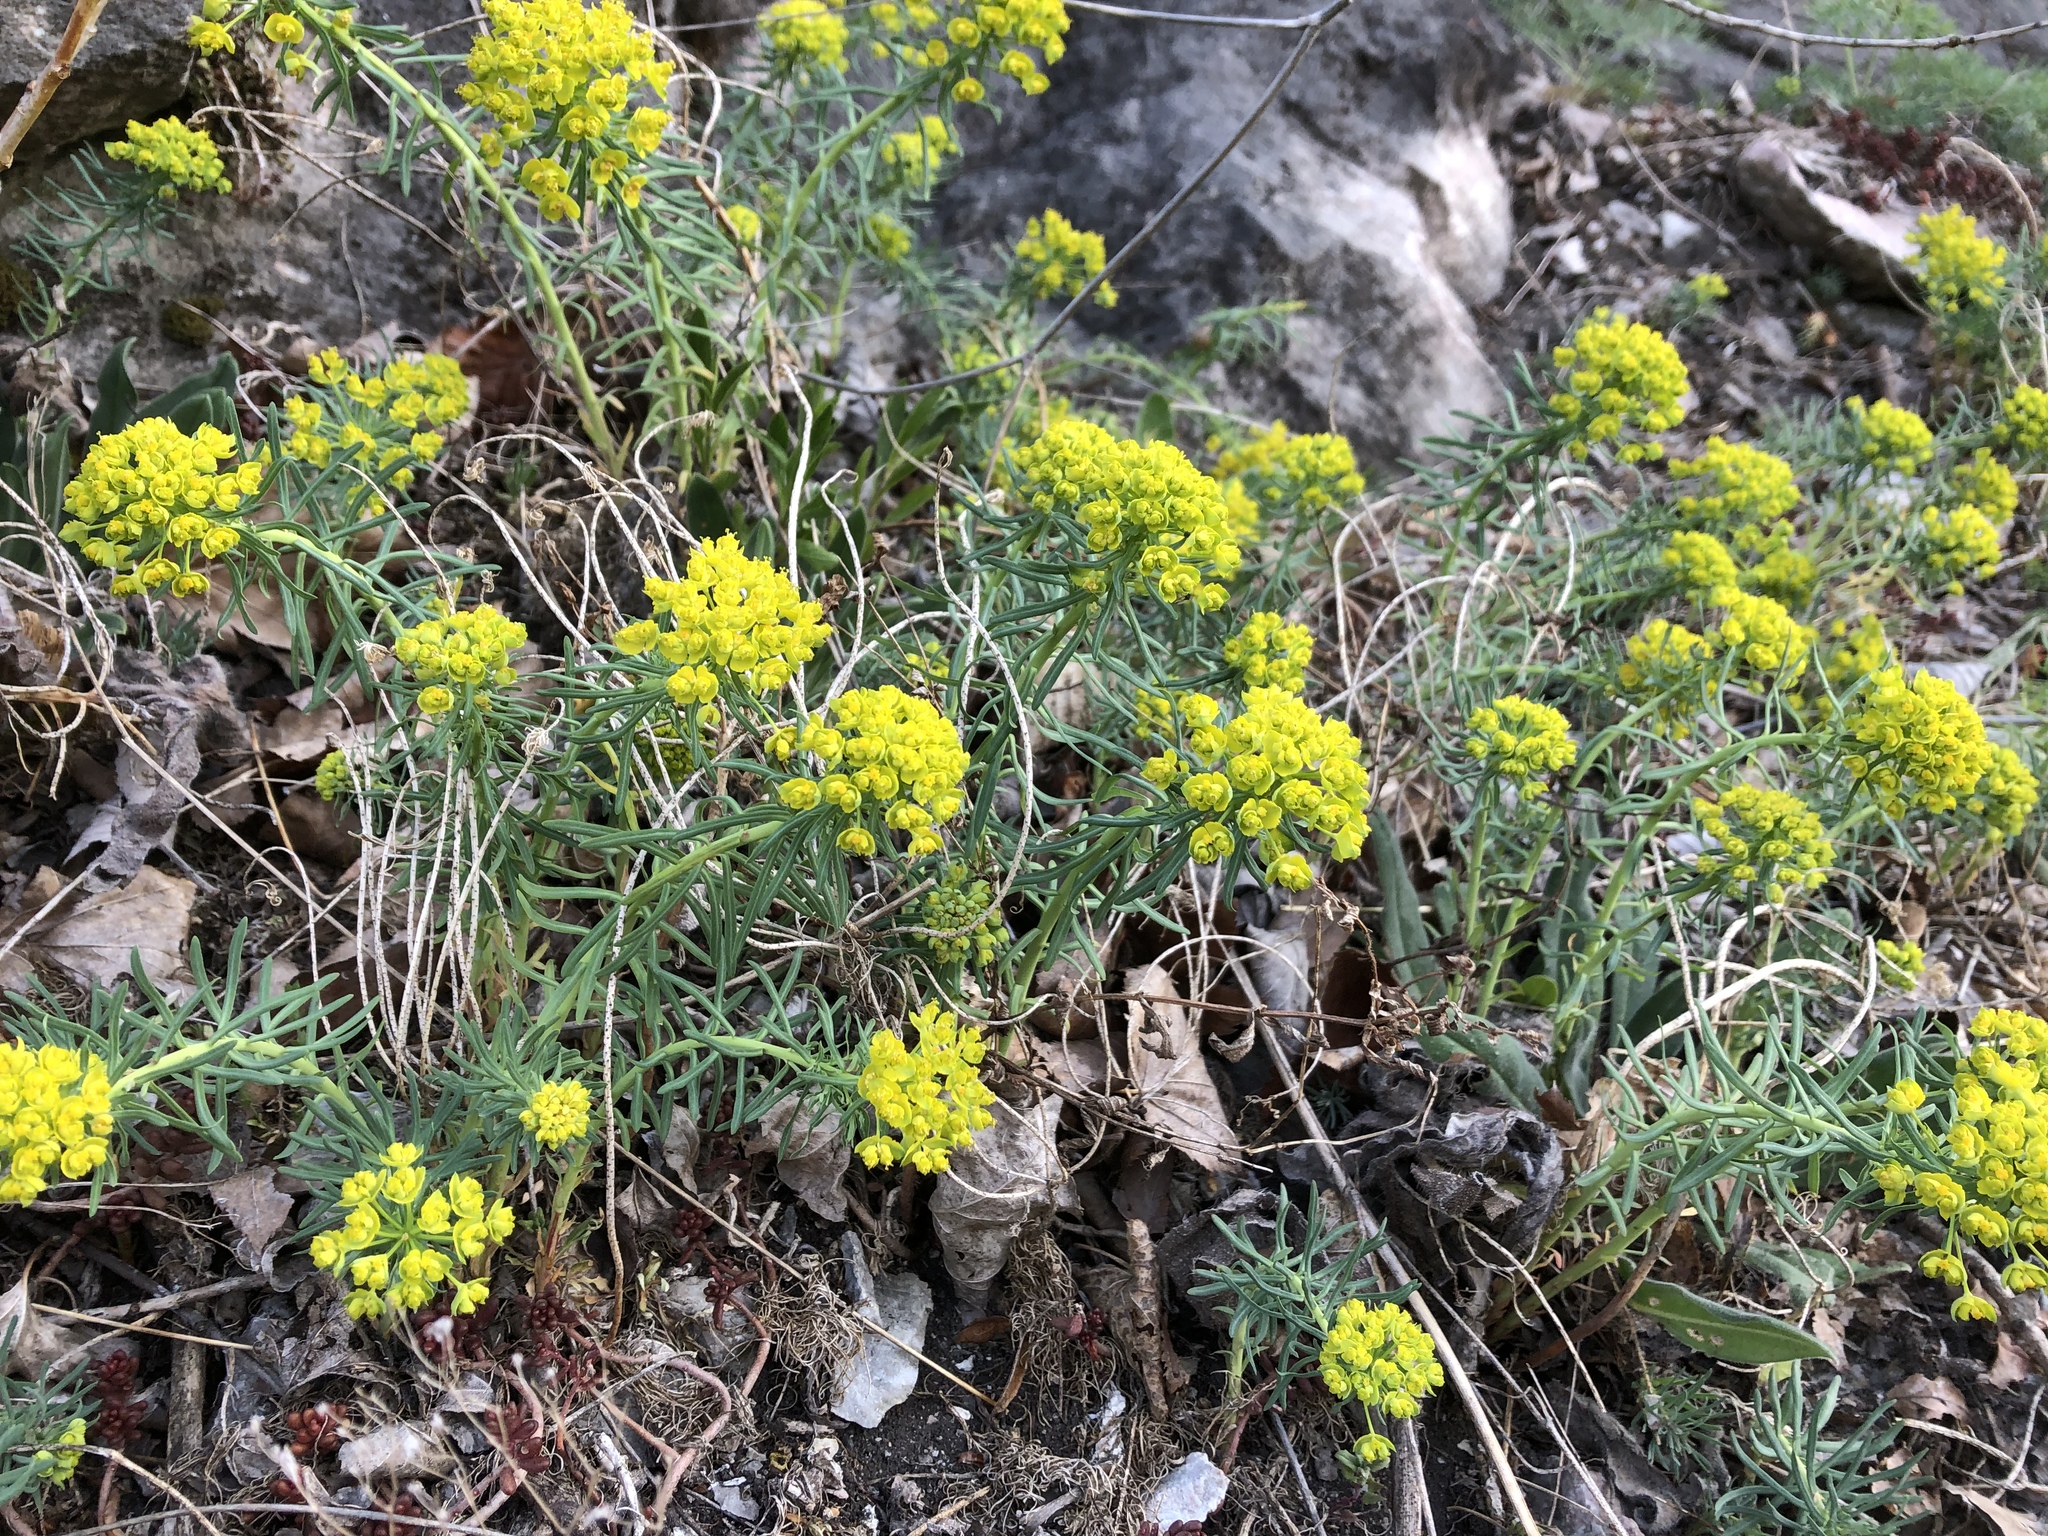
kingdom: Plantae
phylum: Tracheophyta
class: Magnoliopsida
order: Malpighiales
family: Euphorbiaceae
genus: Euphorbia
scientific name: Euphorbia cyparissias
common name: Cypress spurge
